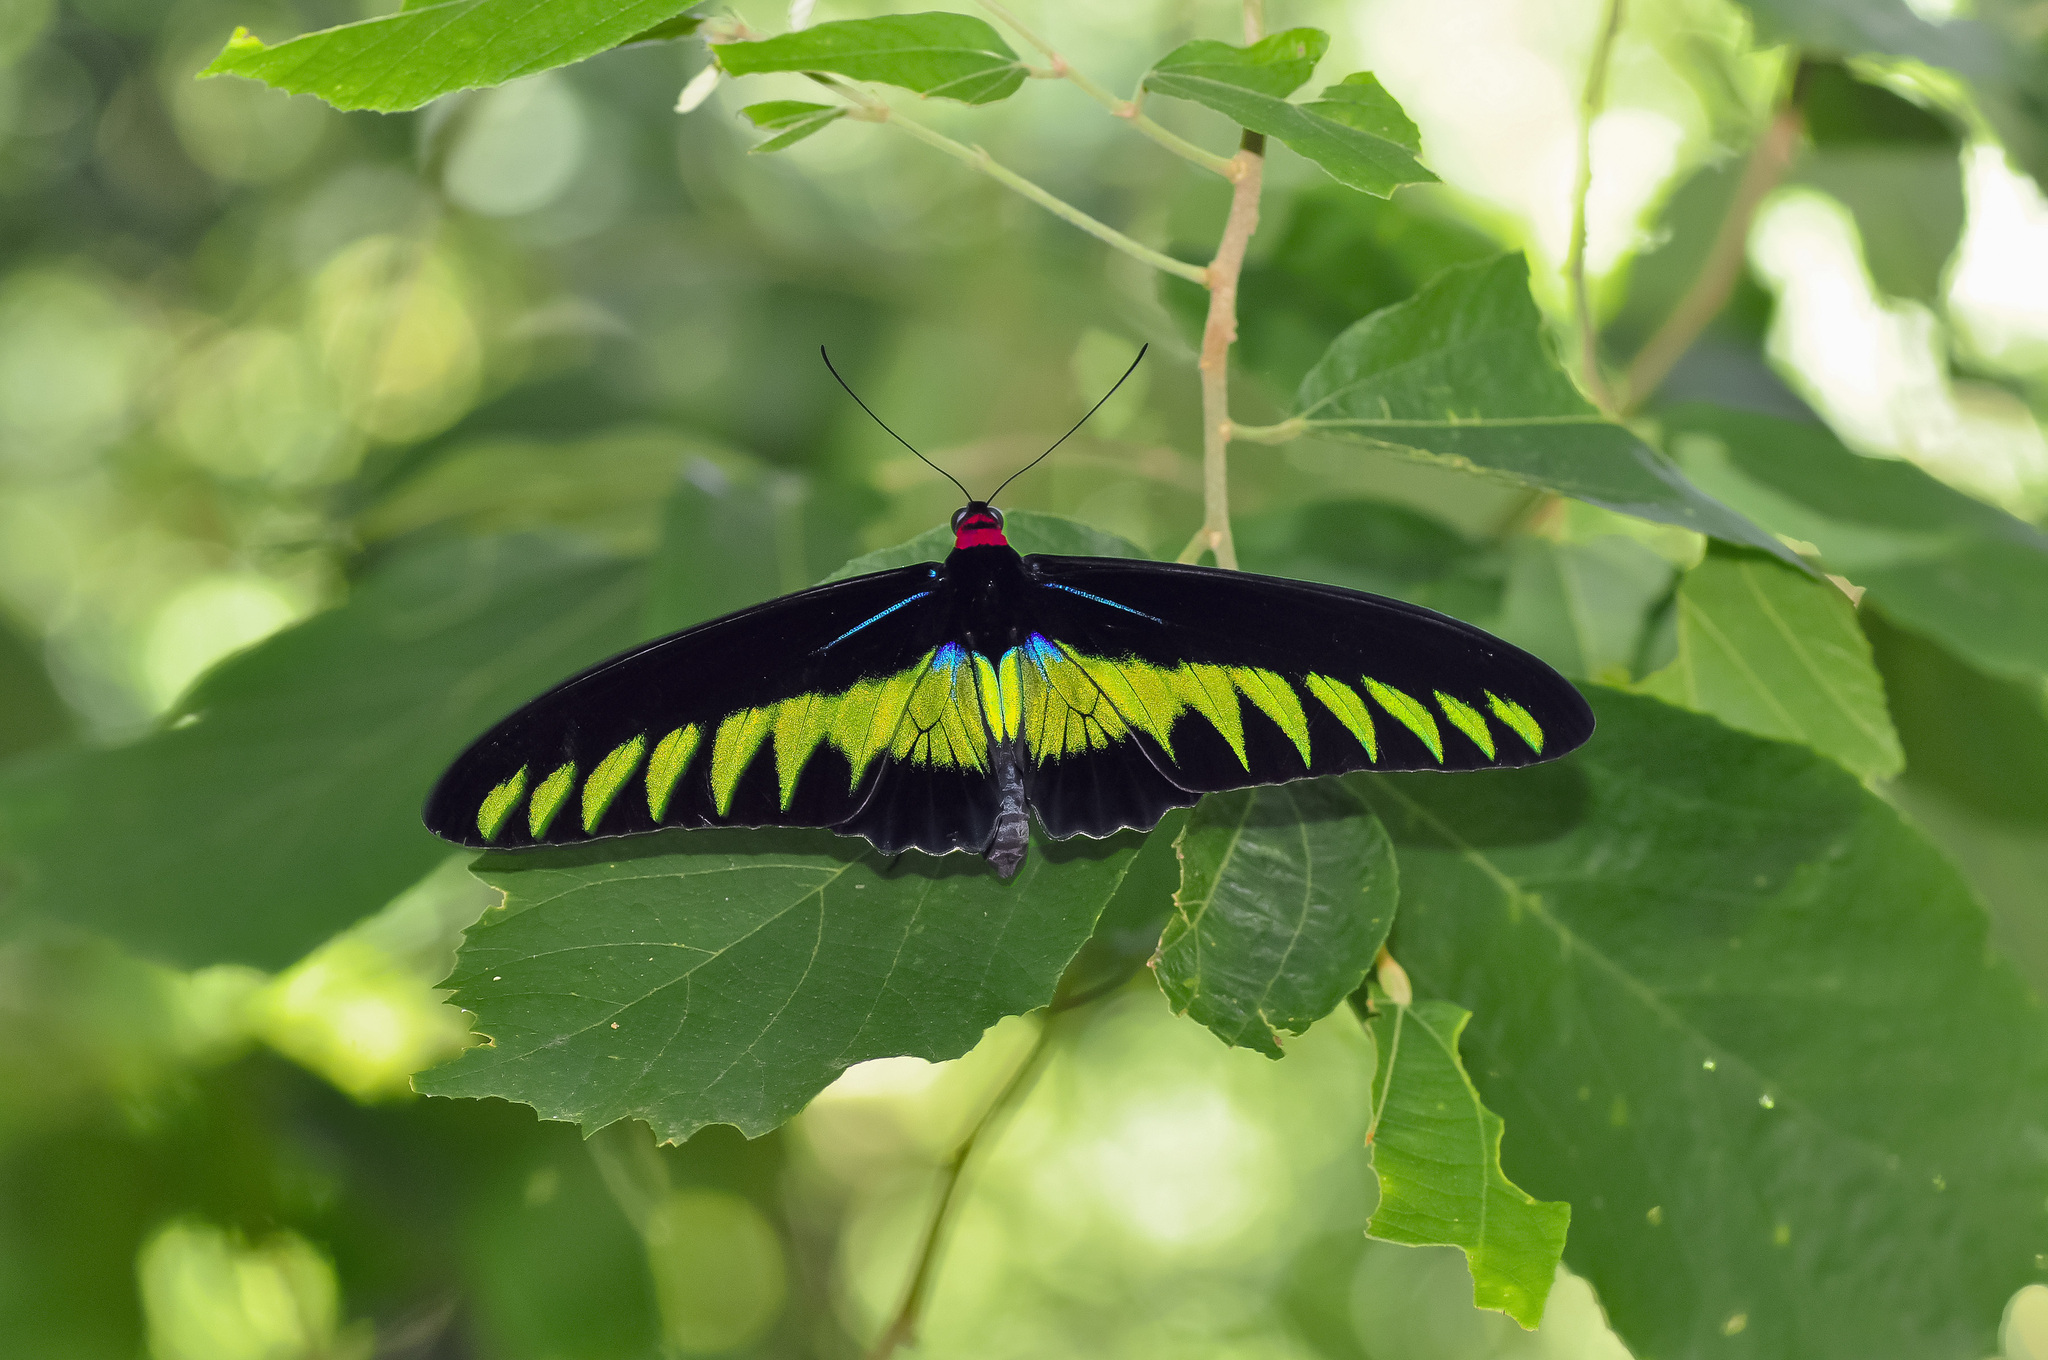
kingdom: Animalia
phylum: Arthropoda
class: Insecta
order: Lepidoptera
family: Papilionidae
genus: Trogonoptera
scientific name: Trogonoptera brookiana
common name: Raja brooke's birdwing
